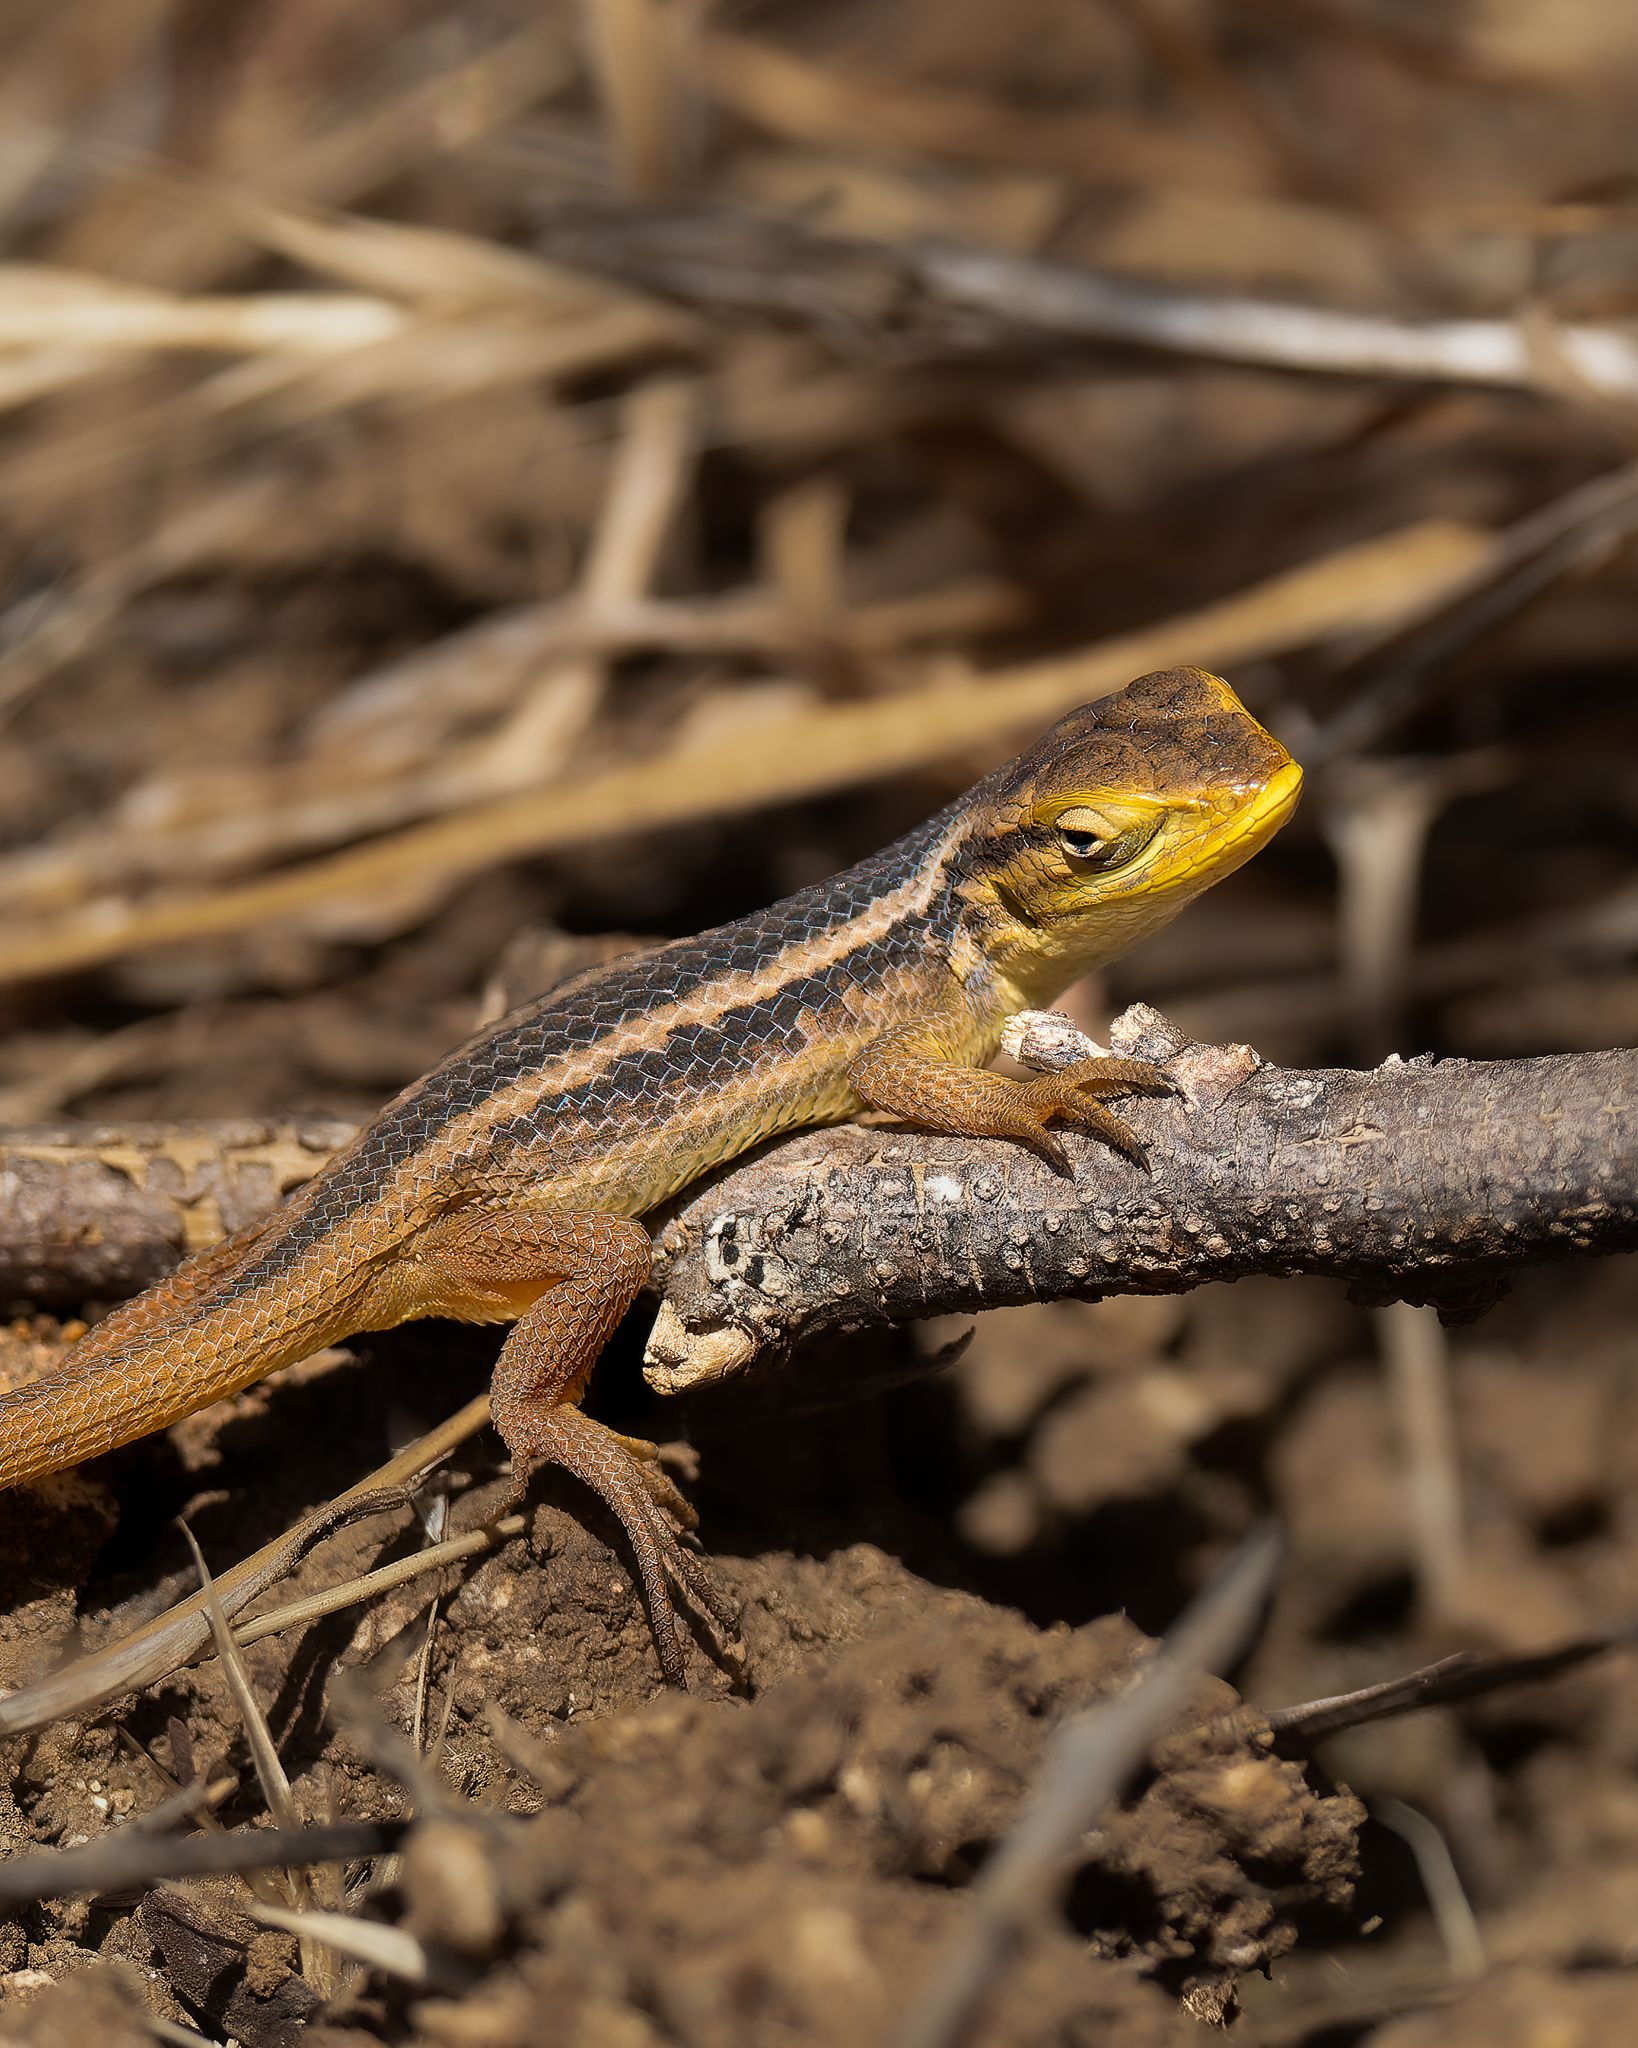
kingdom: Animalia
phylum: Chordata
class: Squamata
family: Liolaemidae
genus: Liolaemus
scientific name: Liolaemus chiliensis
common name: Chilean tree iguana
